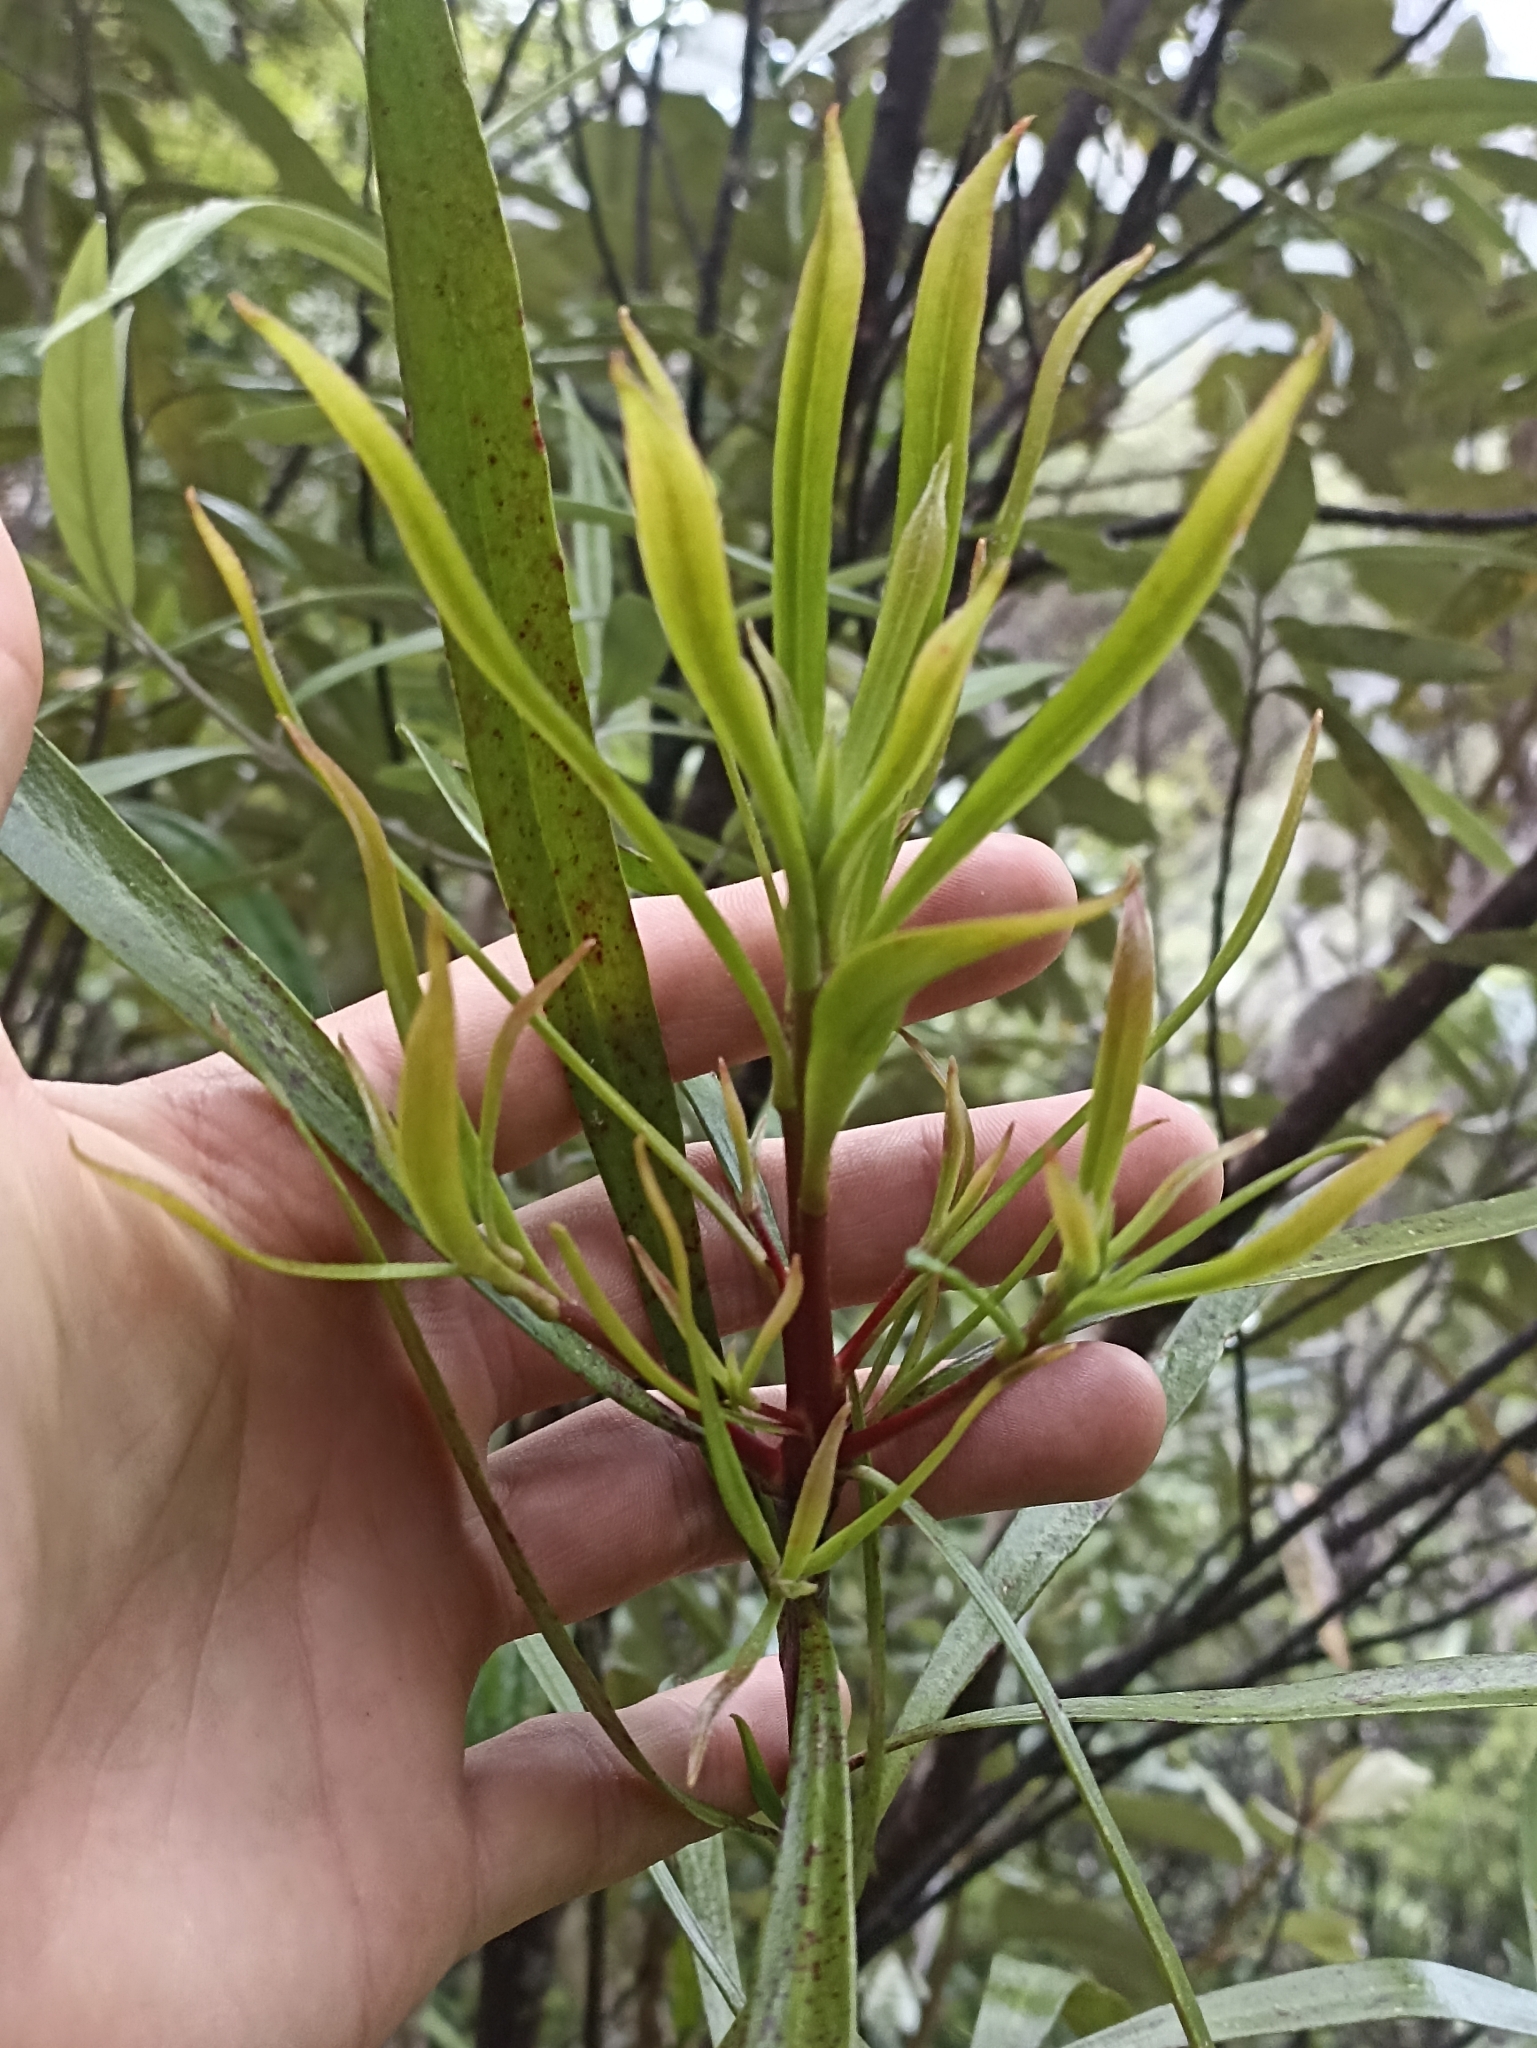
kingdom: Plantae
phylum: Tracheophyta
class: Magnoliopsida
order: Proteales
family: Proteaceae
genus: Toronia
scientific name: Toronia toru
